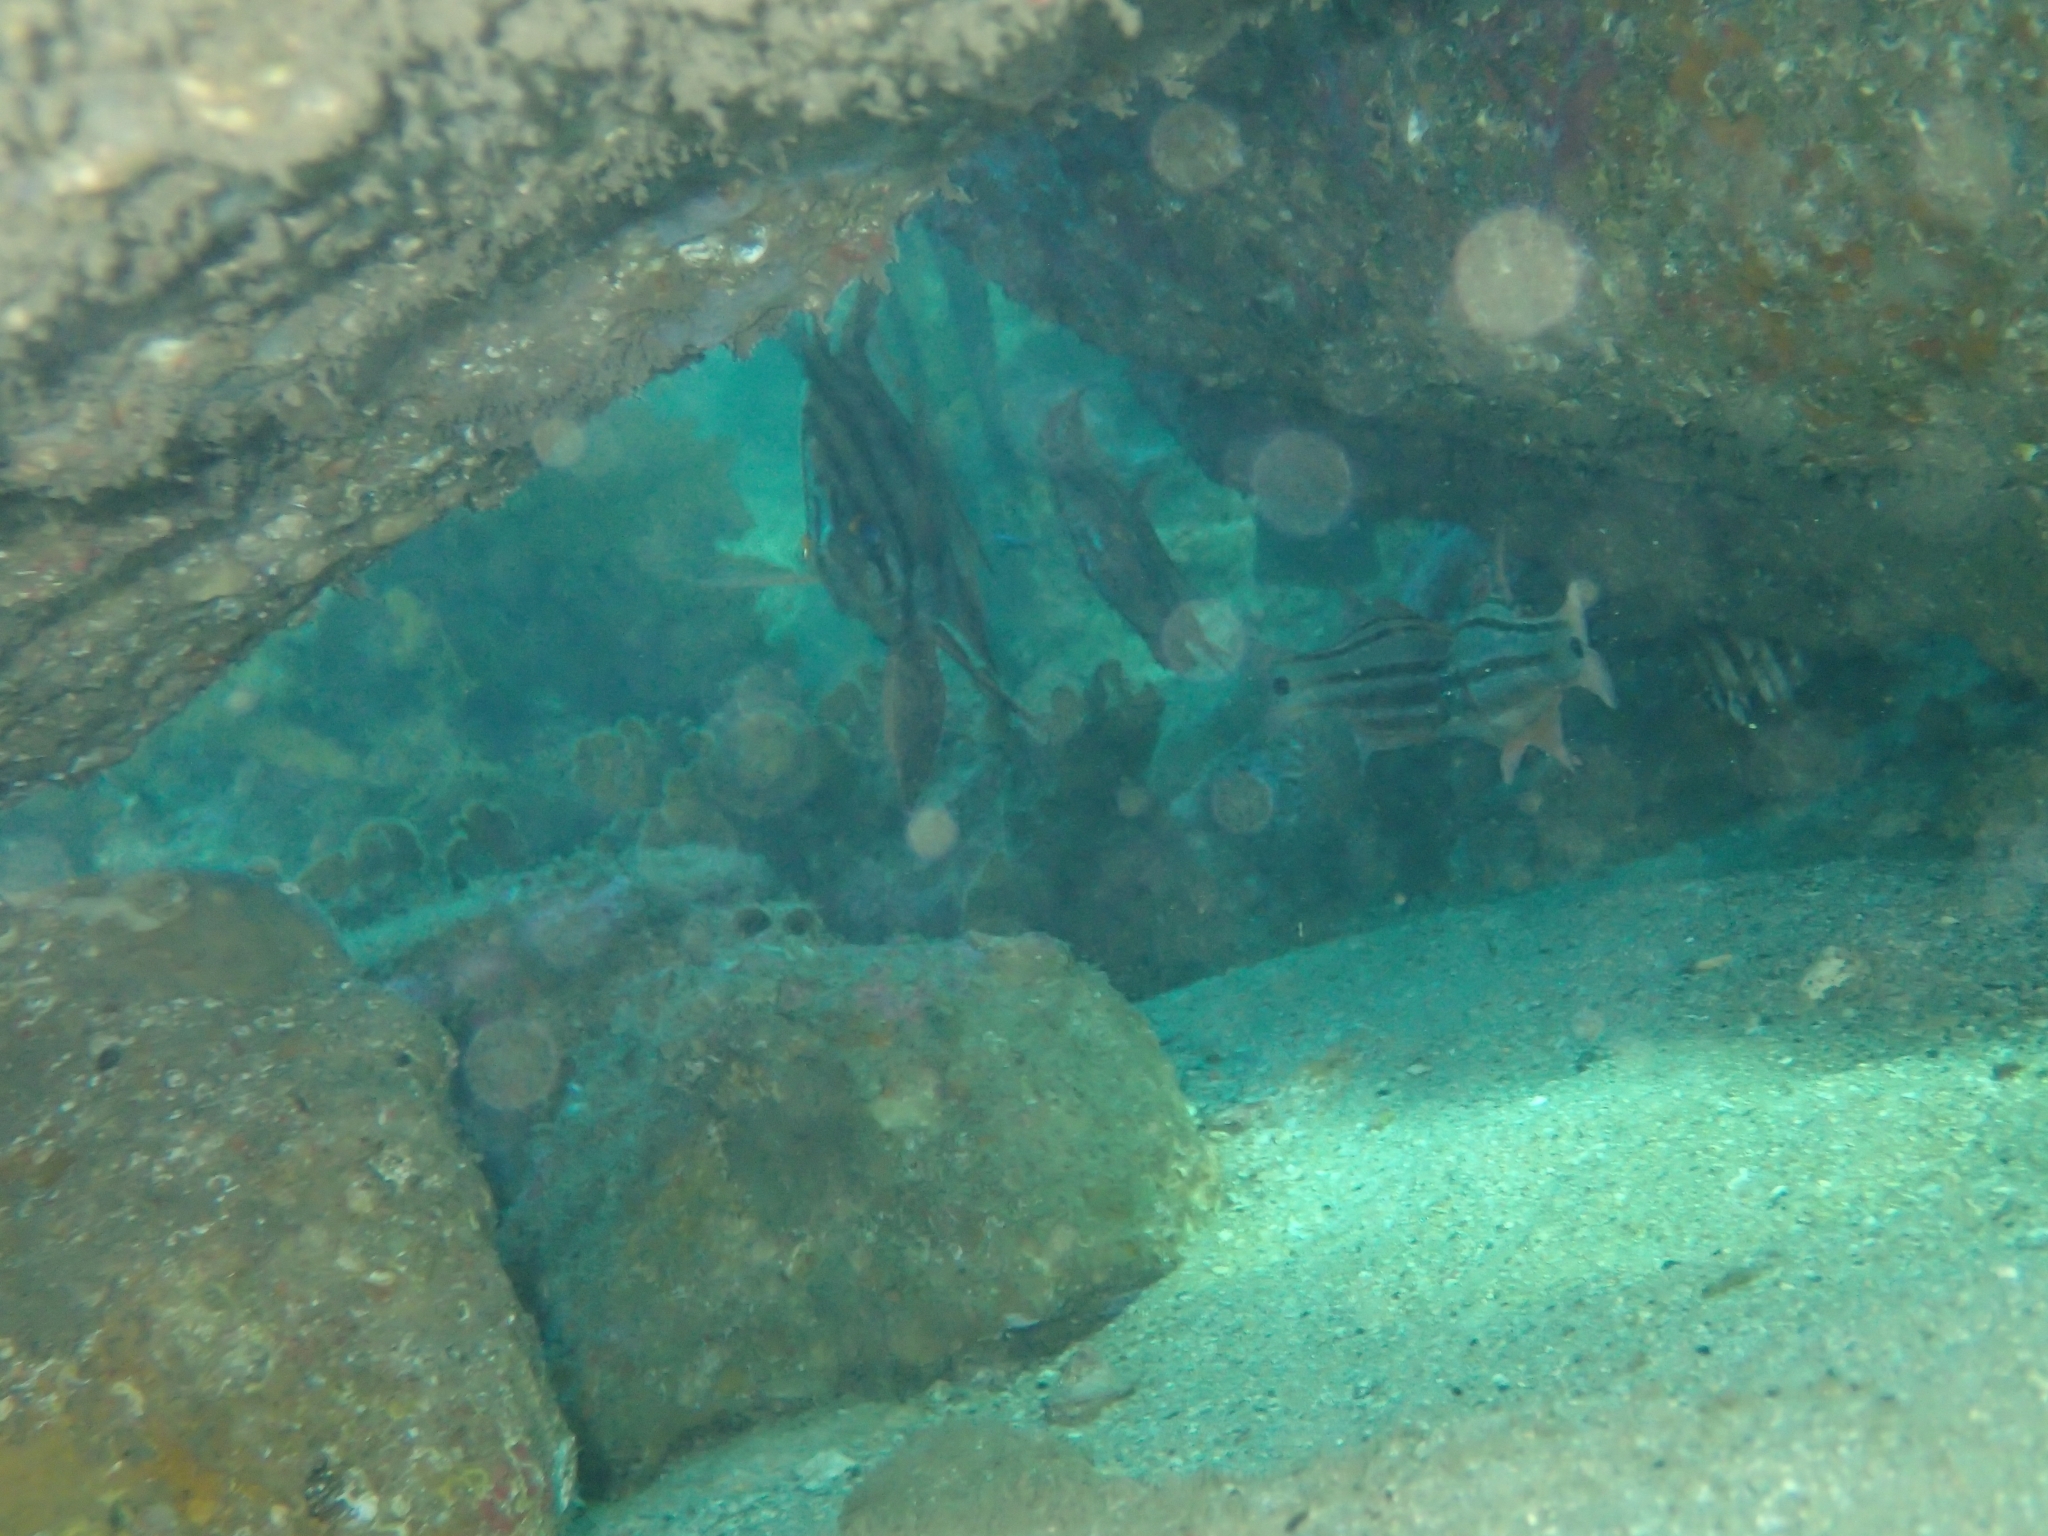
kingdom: Animalia
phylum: Chordata
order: Perciformes
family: Apogonidae
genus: Ostorhinchus
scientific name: Ostorhinchus limenus
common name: Four-banded soldierfish
